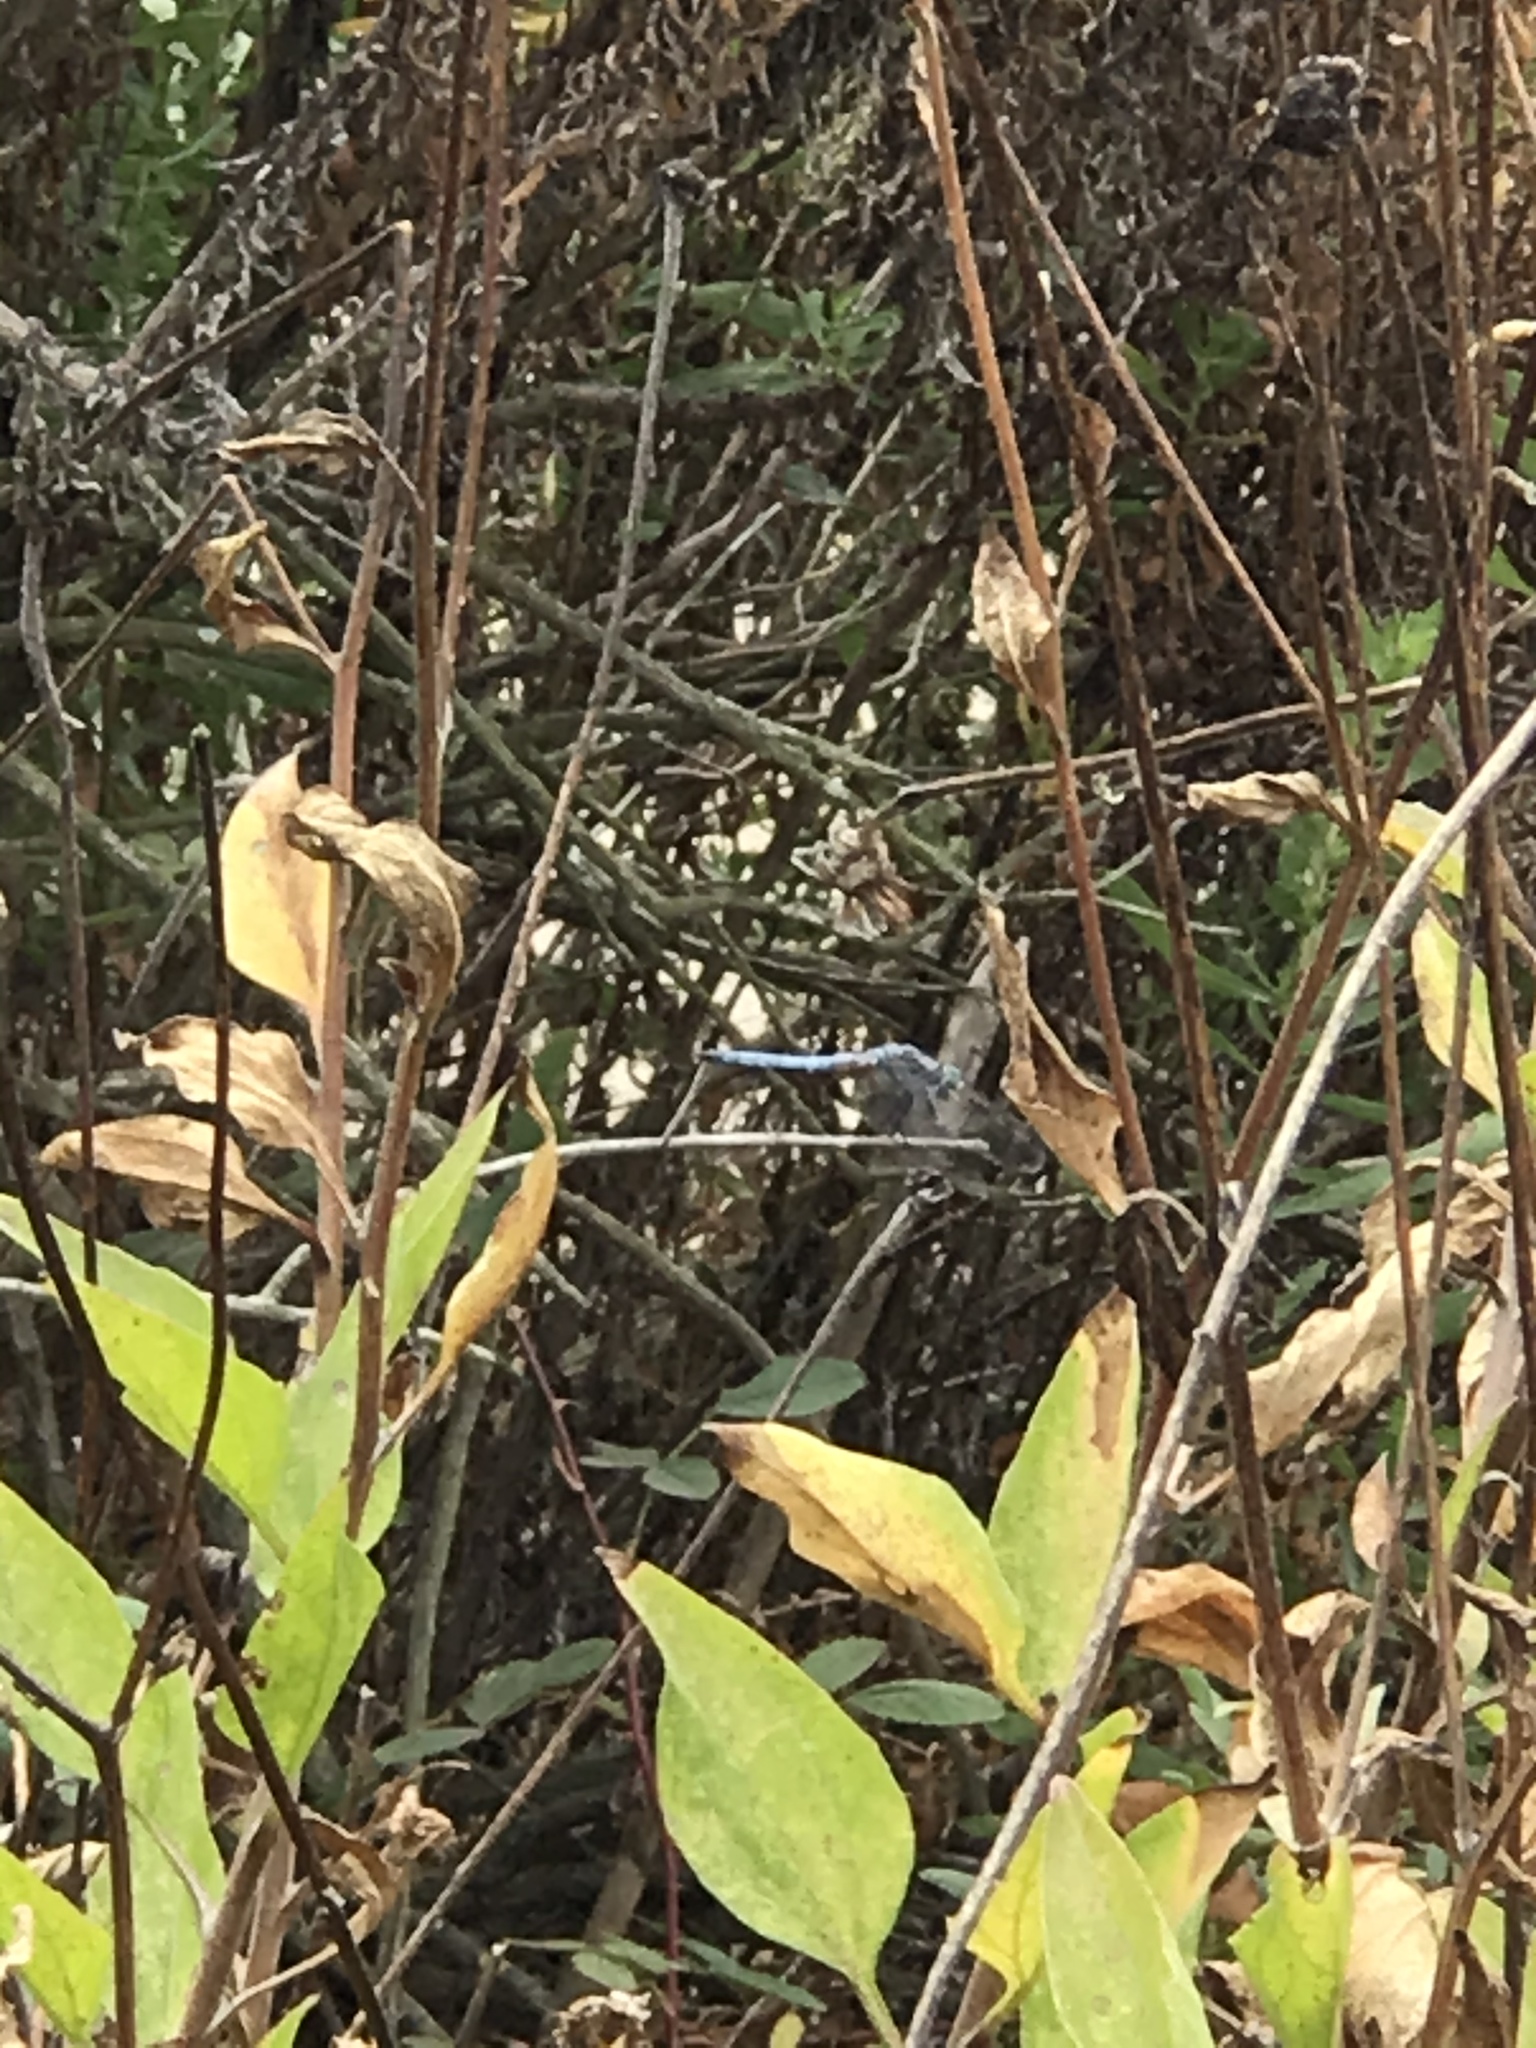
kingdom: Animalia
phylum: Arthropoda
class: Insecta
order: Odonata
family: Libellulidae
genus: Pachydiplax
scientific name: Pachydiplax longipennis
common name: Blue dasher
